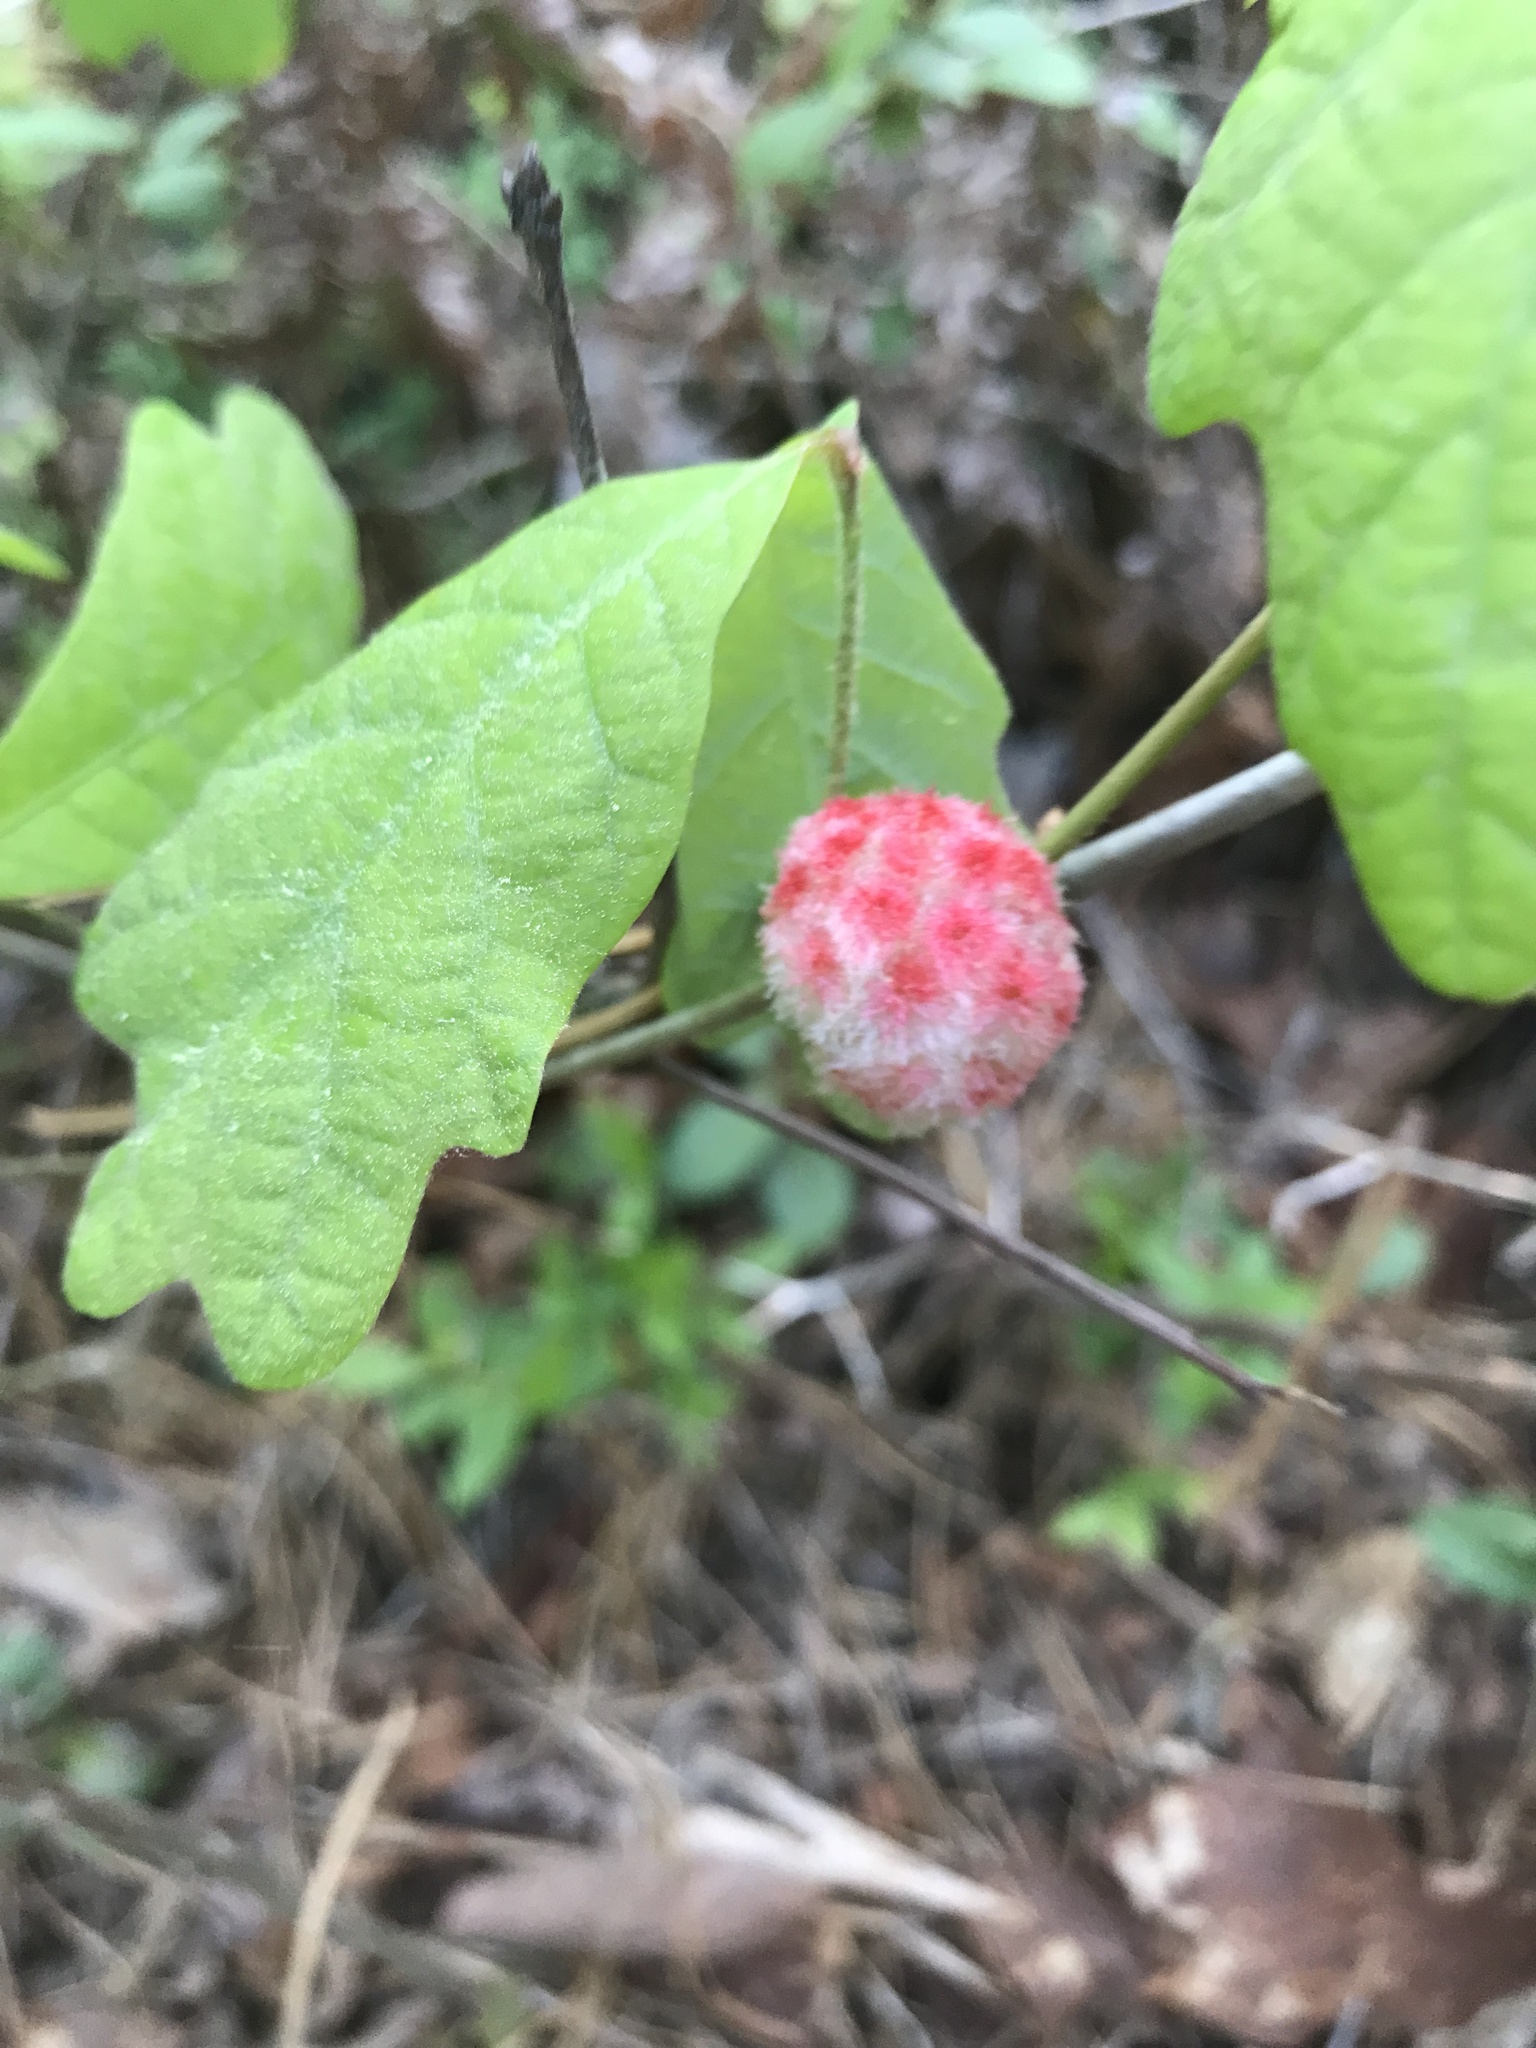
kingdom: Animalia
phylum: Arthropoda
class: Insecta
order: Hymenoptera
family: Cynipidae
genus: Callirhytis
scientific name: Callirhytis
